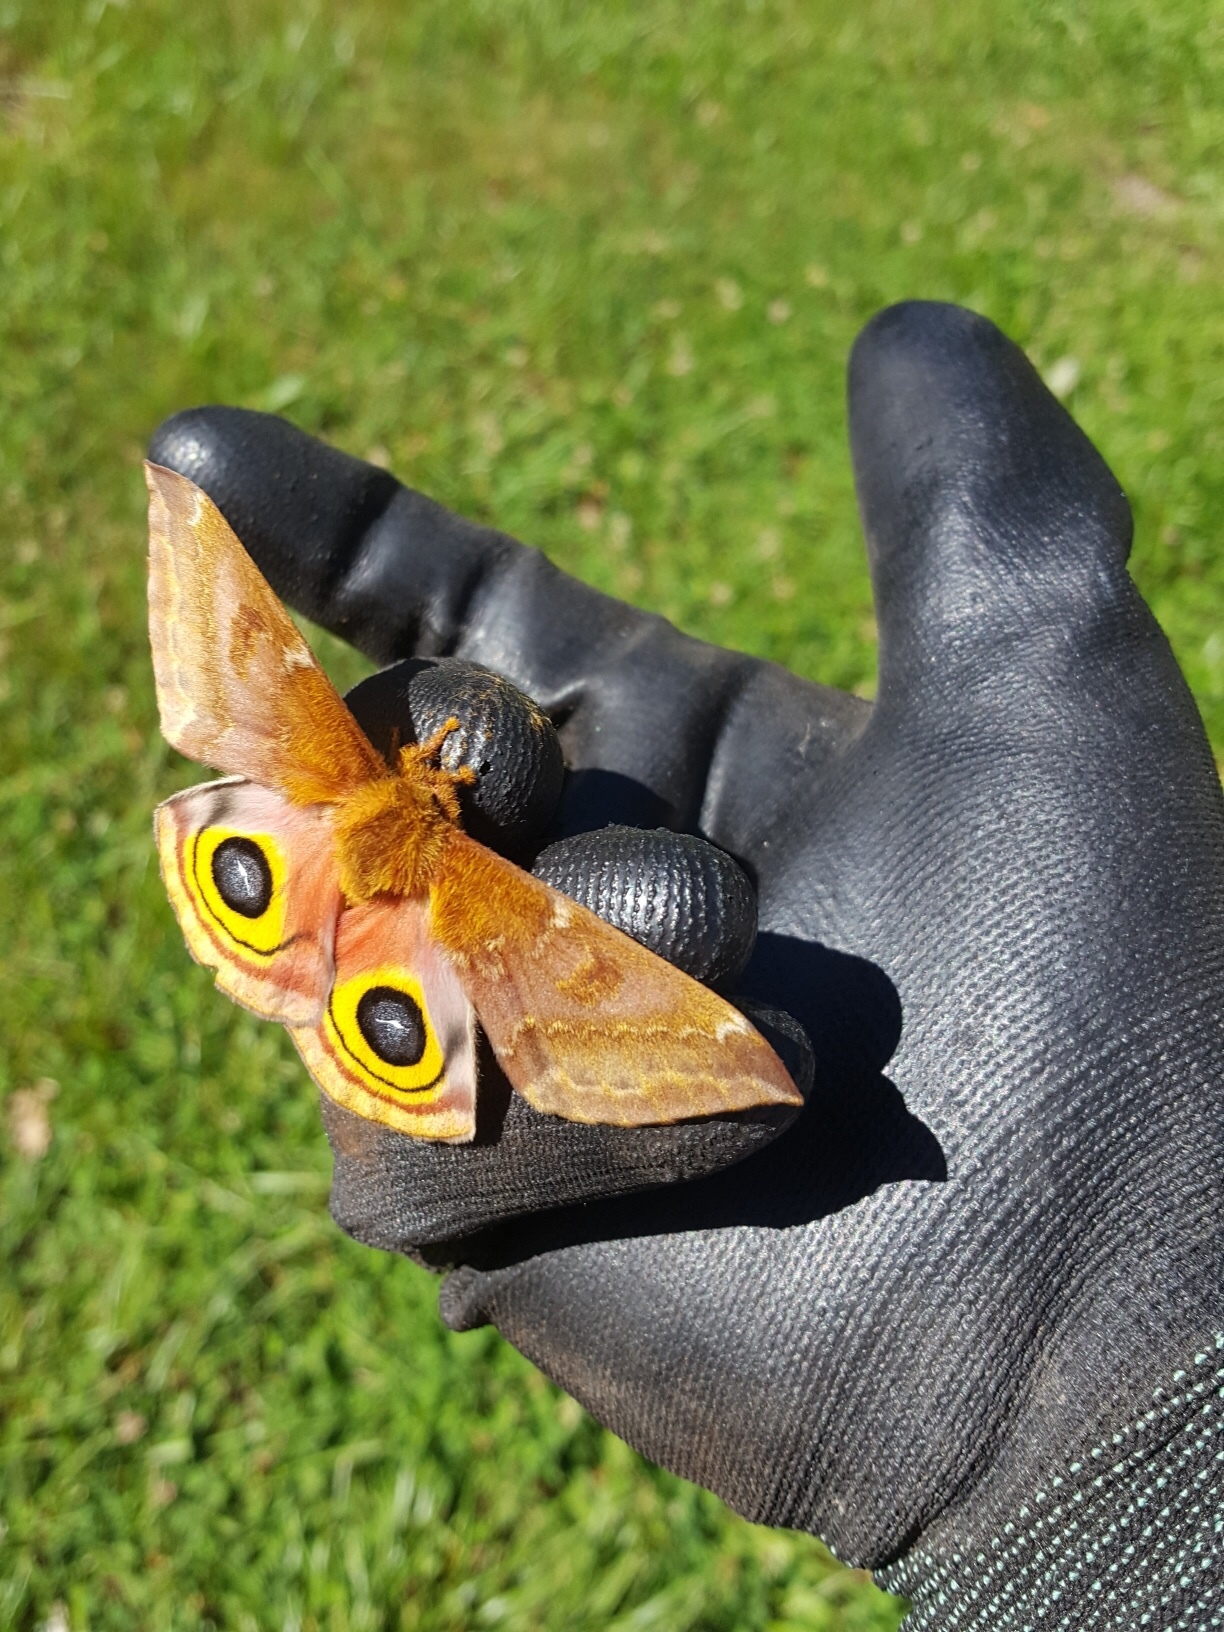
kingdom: Animalia
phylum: Arthropoda
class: Insecta
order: Lepidoptera
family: Saturniidae
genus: Automeris
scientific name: Automeris io
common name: Io moth
